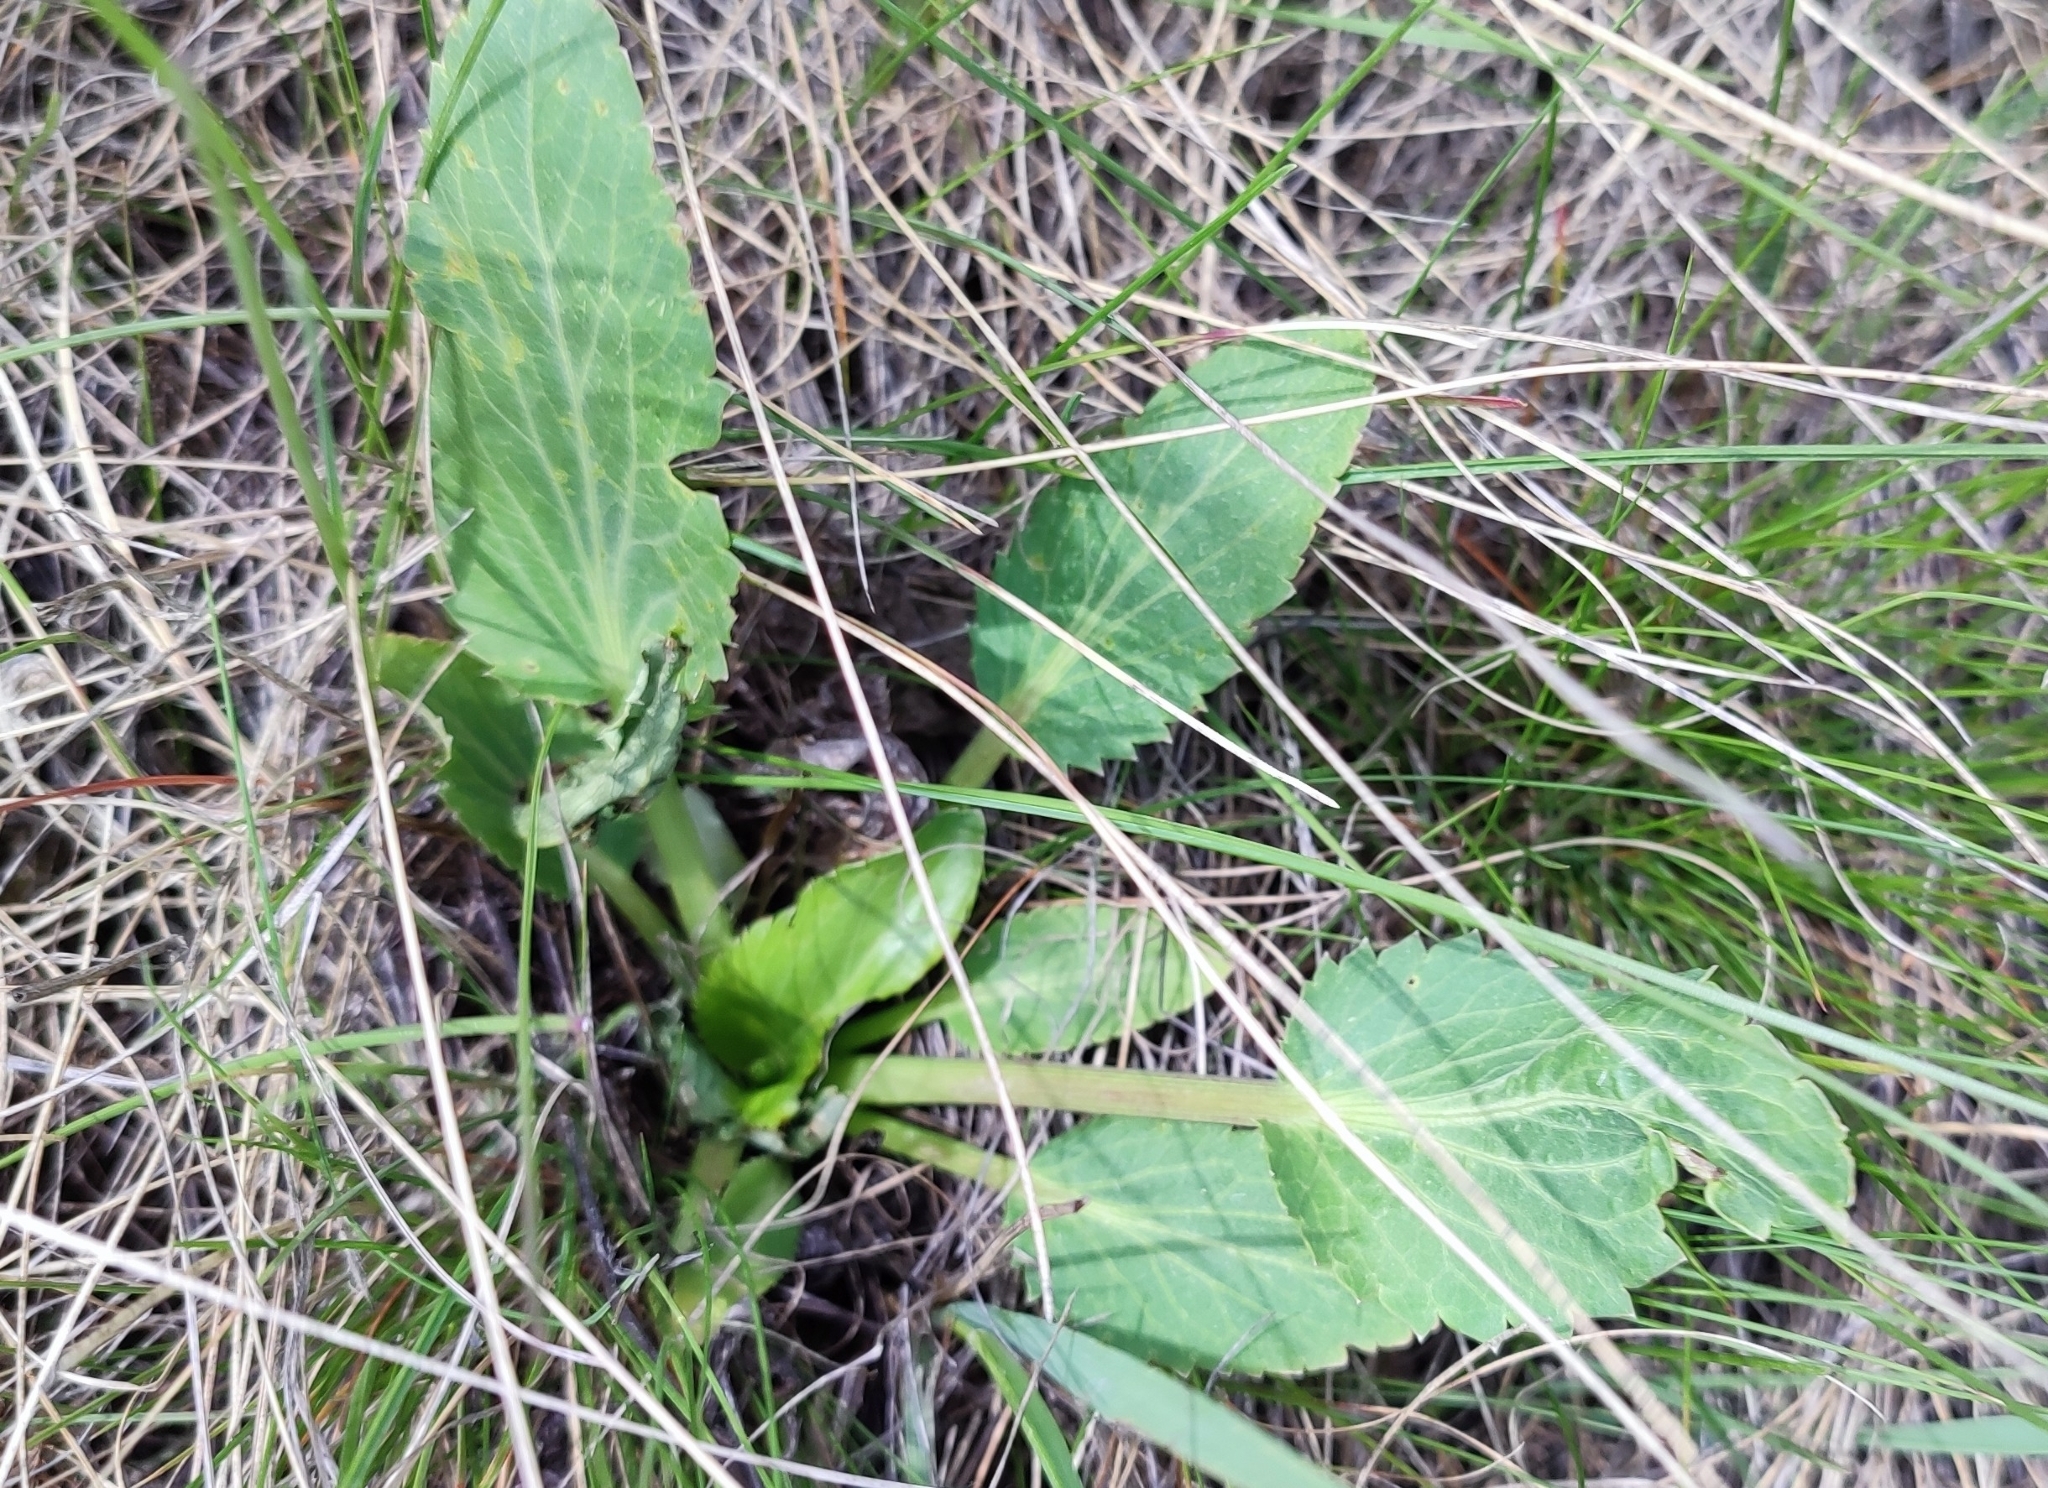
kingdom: Plantae
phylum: Tracheophyta
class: Magnoliopsida
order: Apiales
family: Apiaceae
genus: Eryngium
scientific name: Eryngium planum
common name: Blue eryngo
